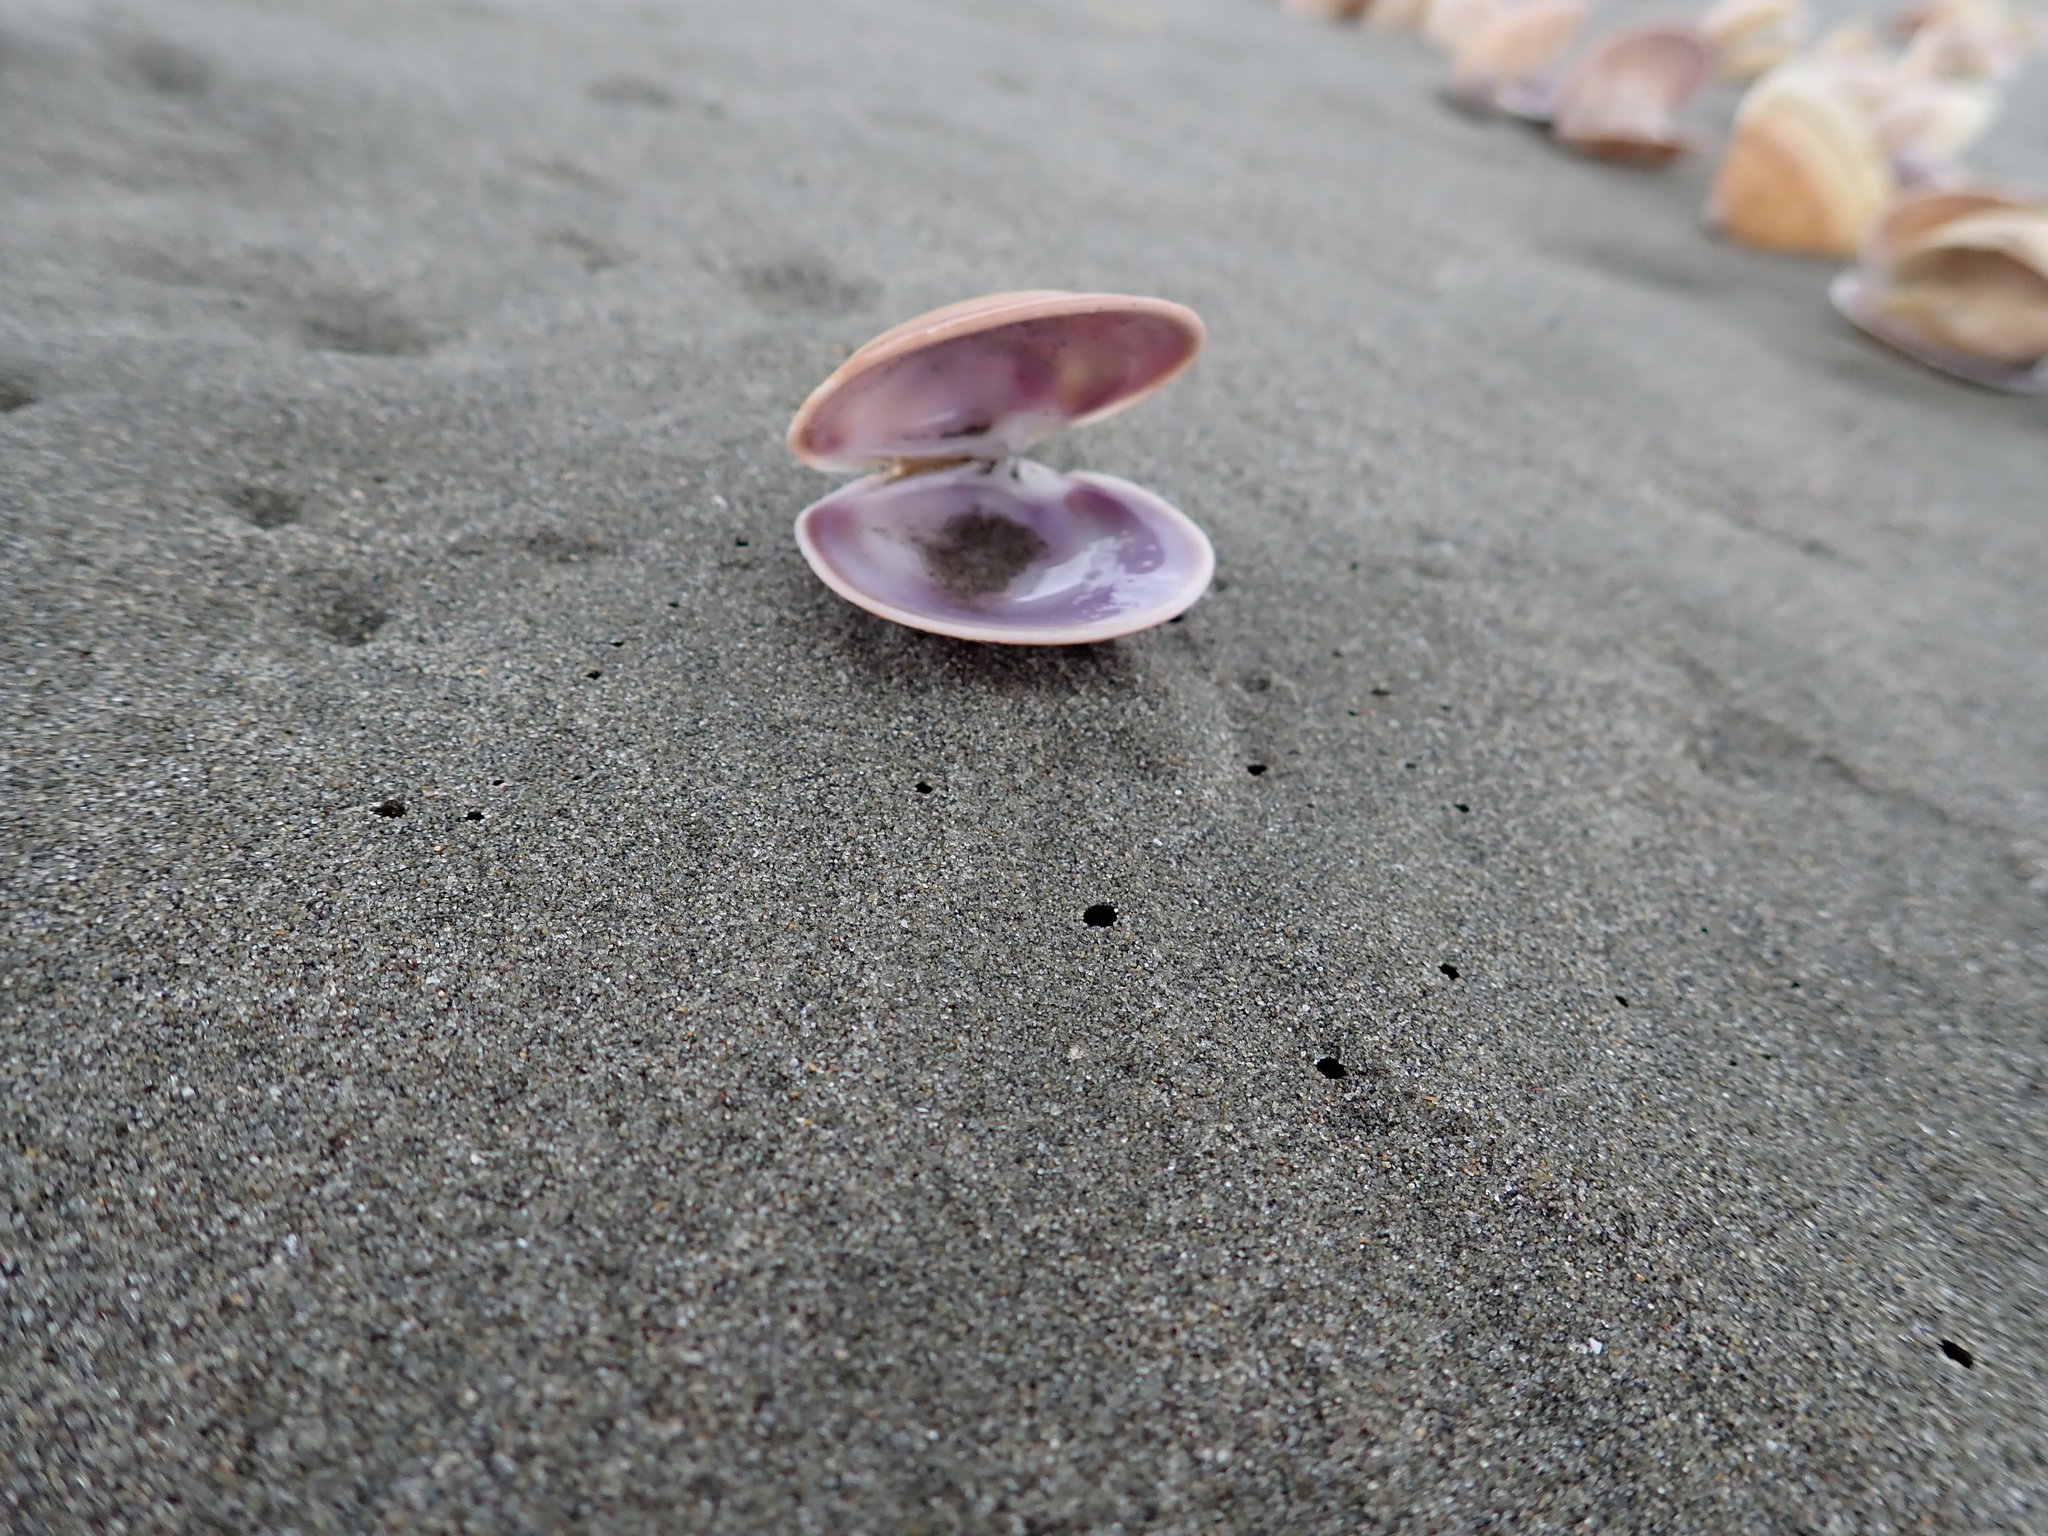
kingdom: Animalia
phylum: Mollusca
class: Bivalvia
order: Venerida
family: Veneridae
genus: Dosinia
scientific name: Dosinia anus
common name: Old-woman dosinia
